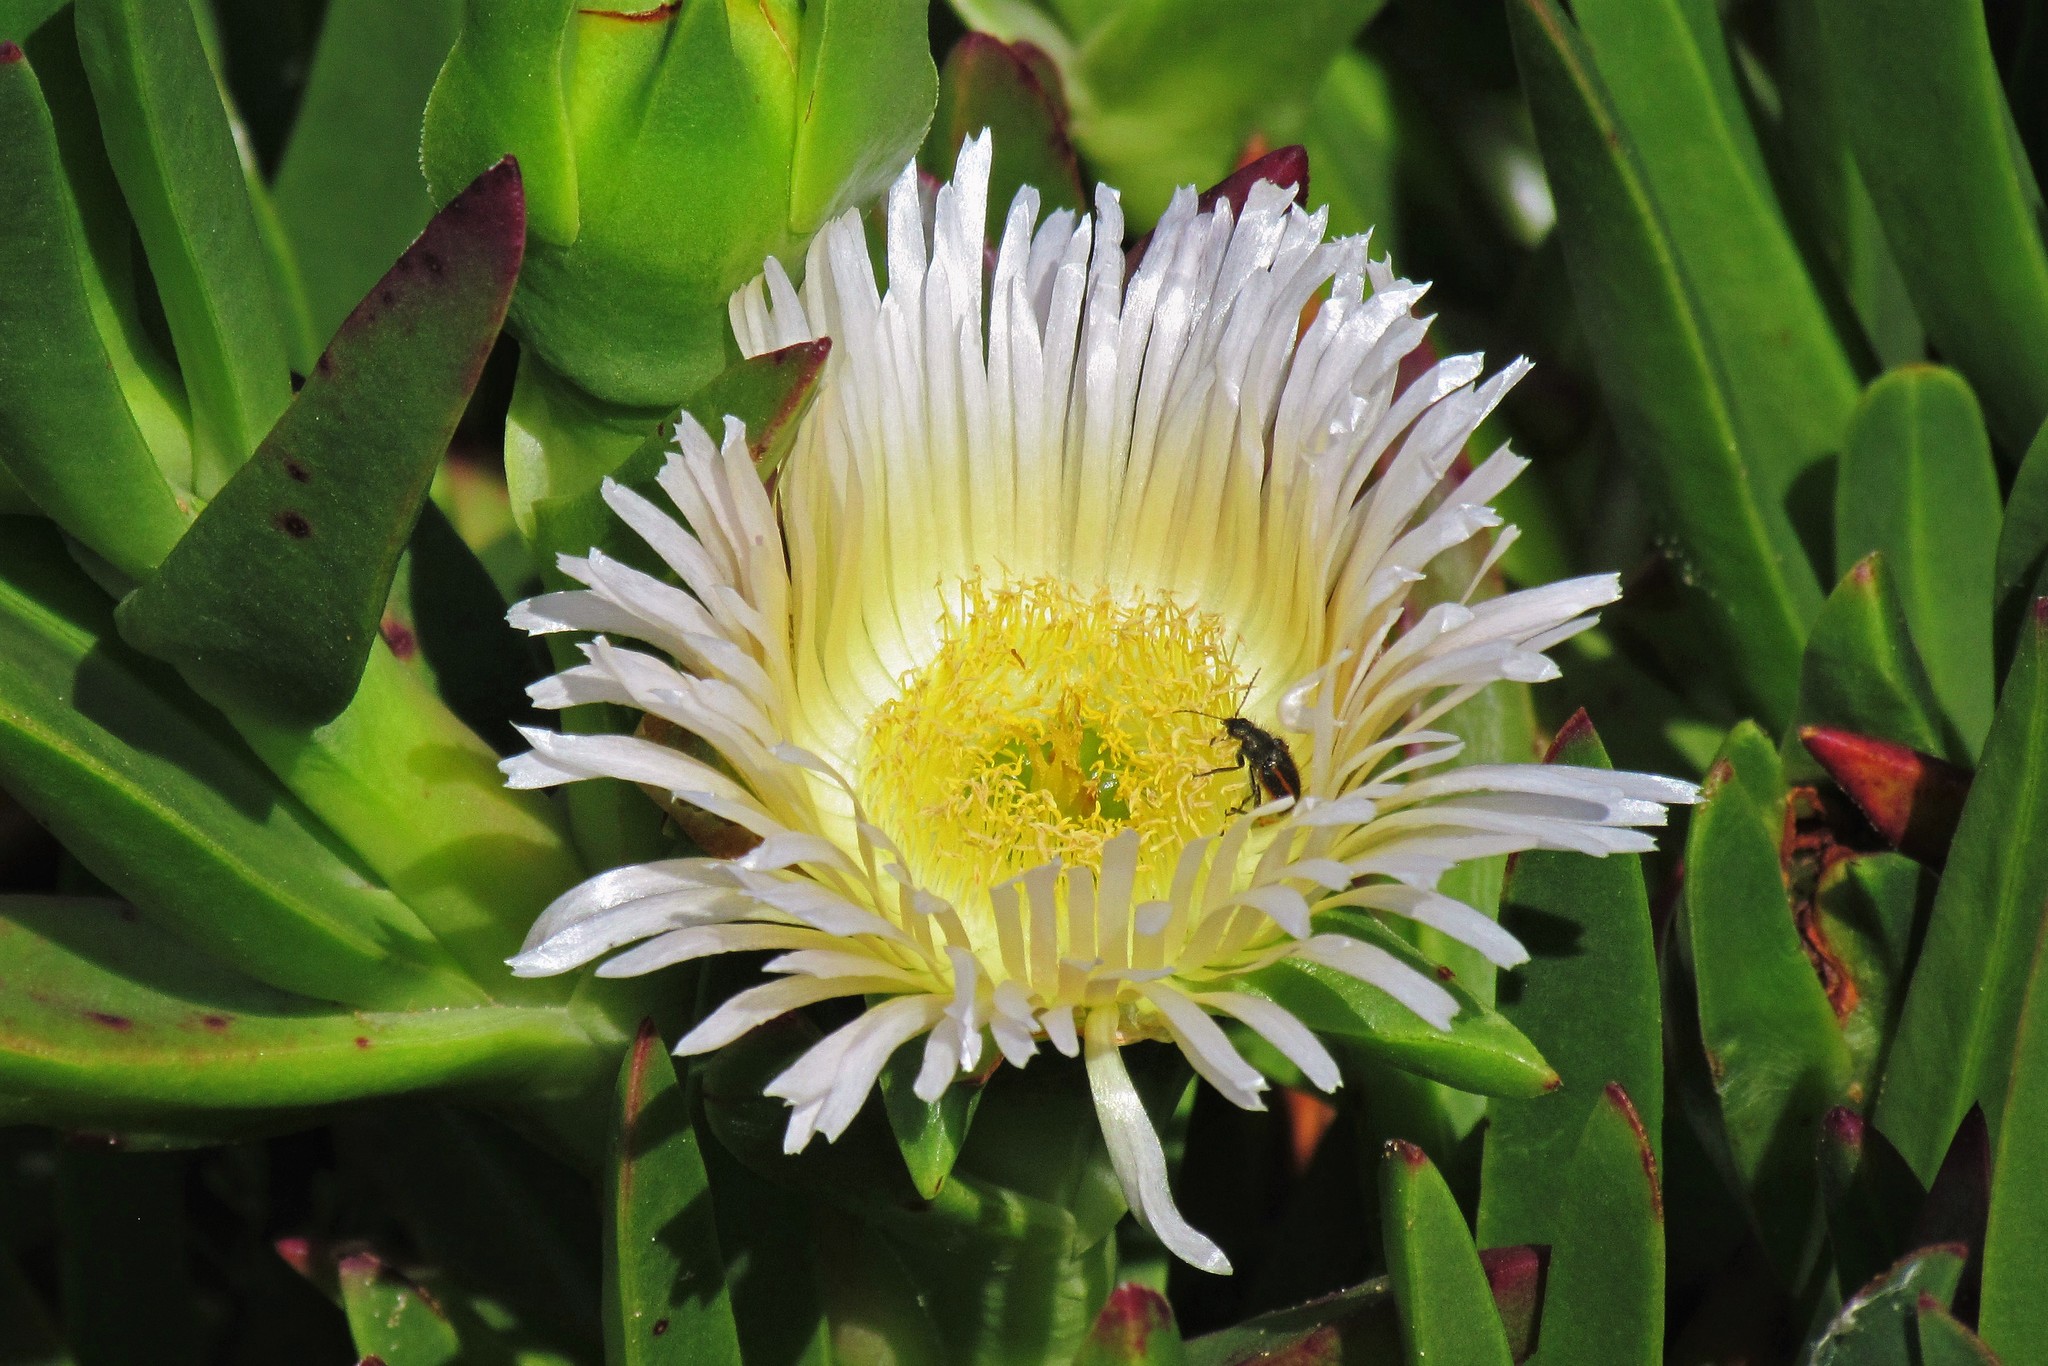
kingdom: Plantae
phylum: Tracheophyta
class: Magnoliopsida
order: Caryophyllales
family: Aizoaceae
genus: Carpobrotus
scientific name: Carpobrotus edulis
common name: Hottentot-fig
